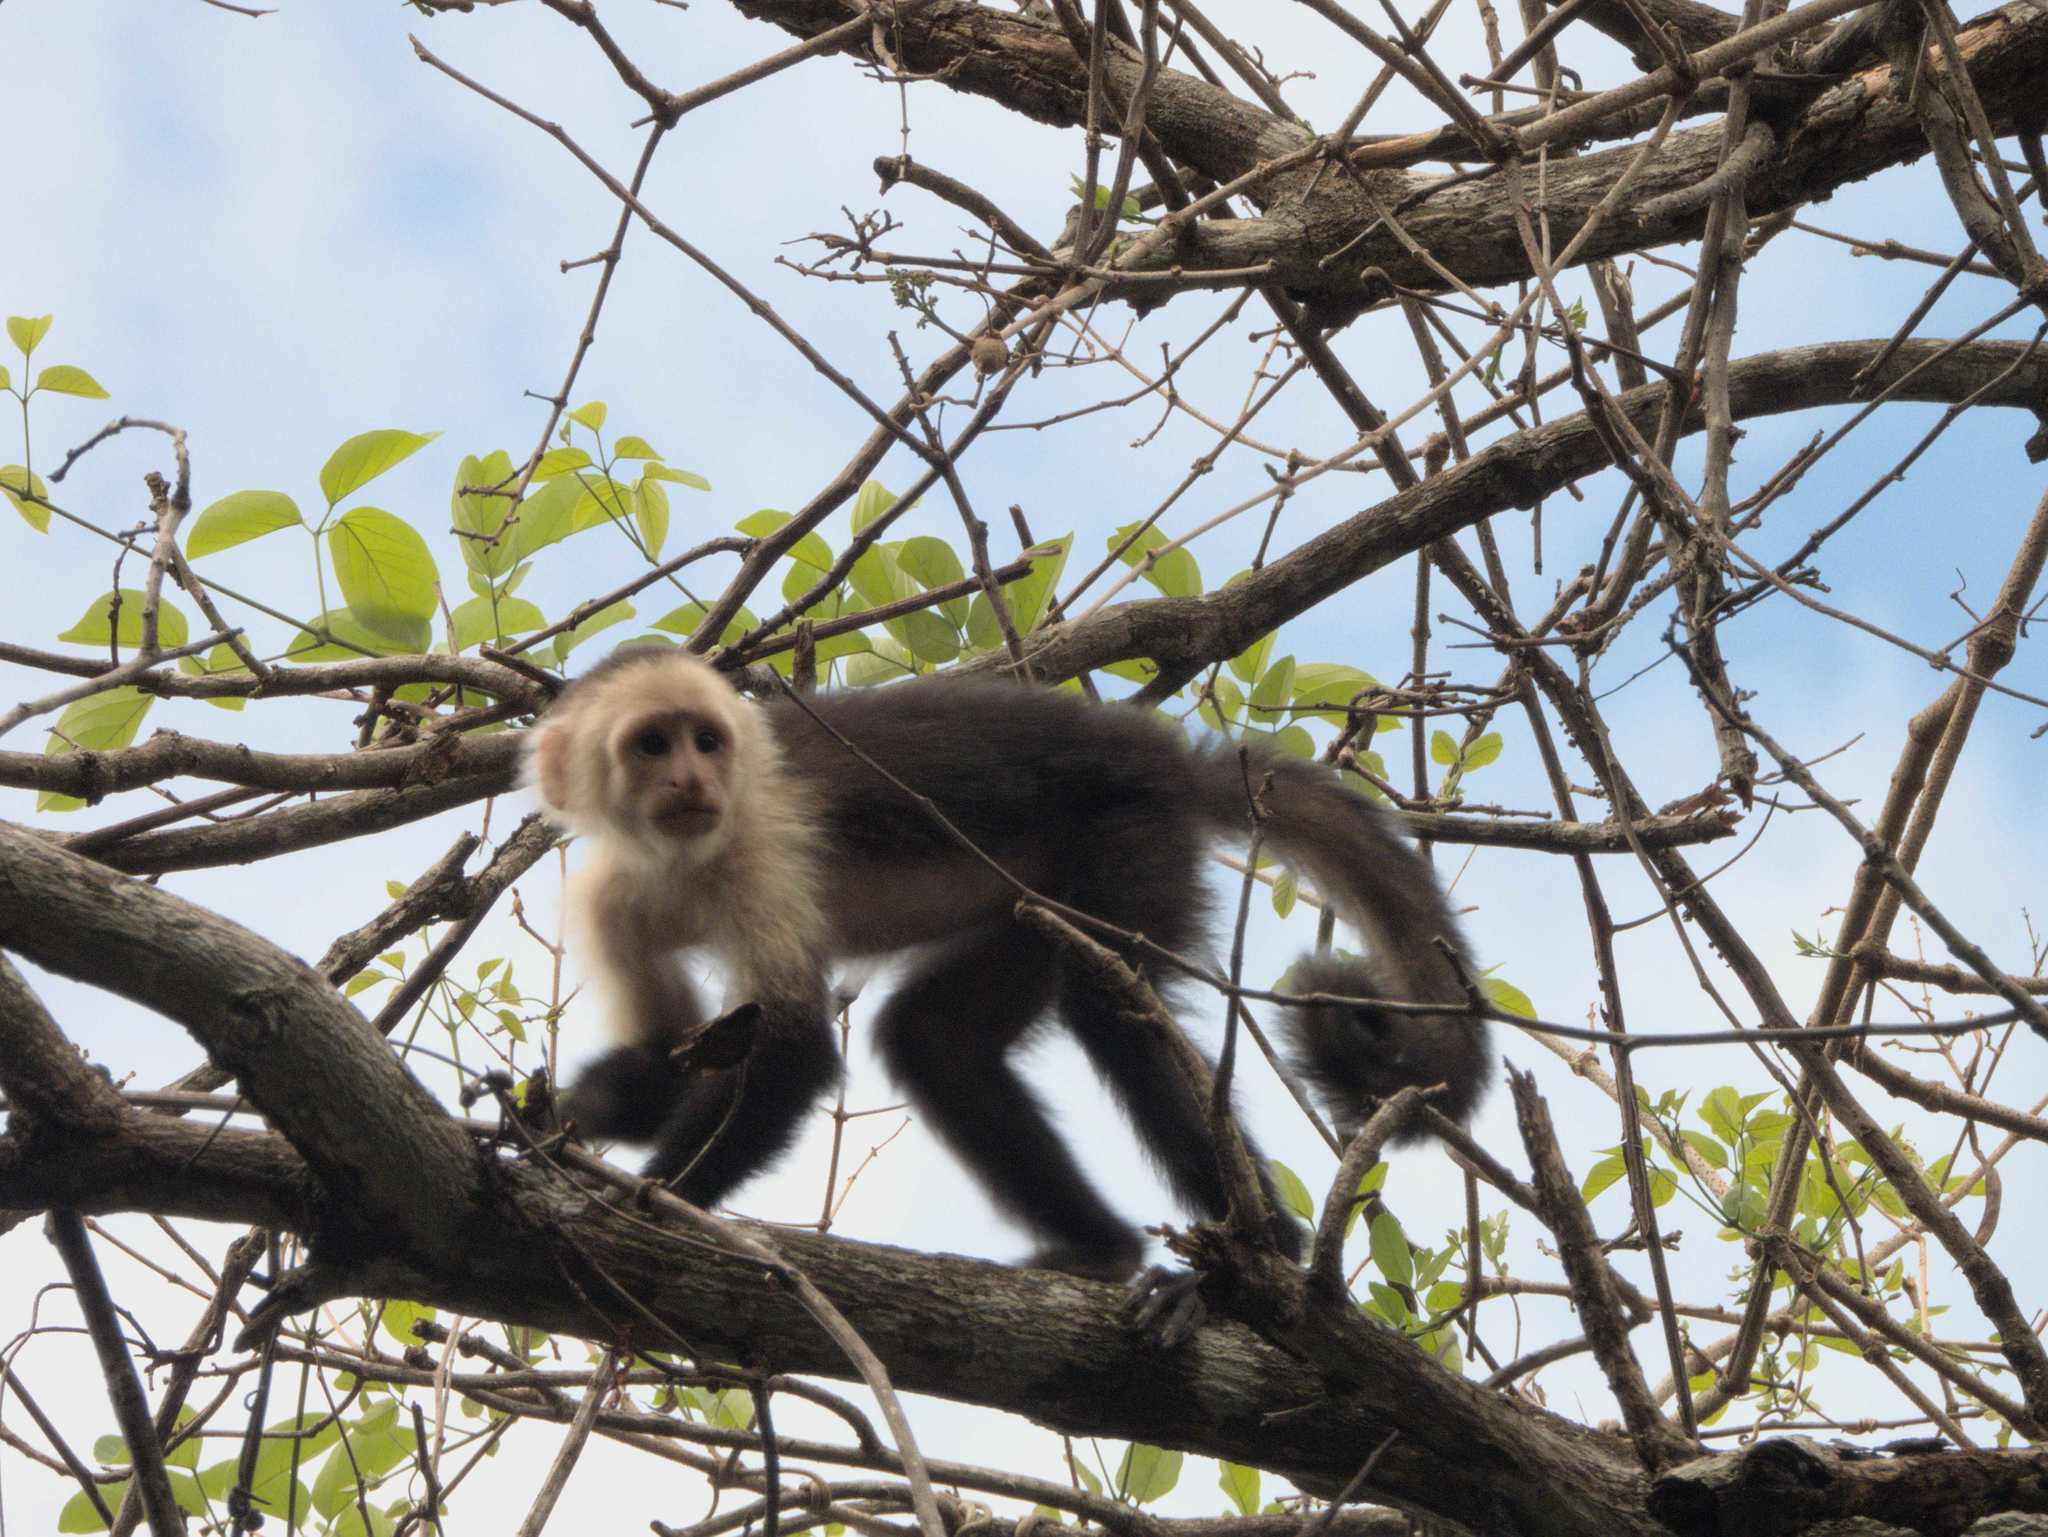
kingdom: Animalia
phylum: Chordata
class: Mammalia
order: Primates
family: Cebidae
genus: Cebus
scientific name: Cebus imitator
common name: Panamanian white-faced capuchin
